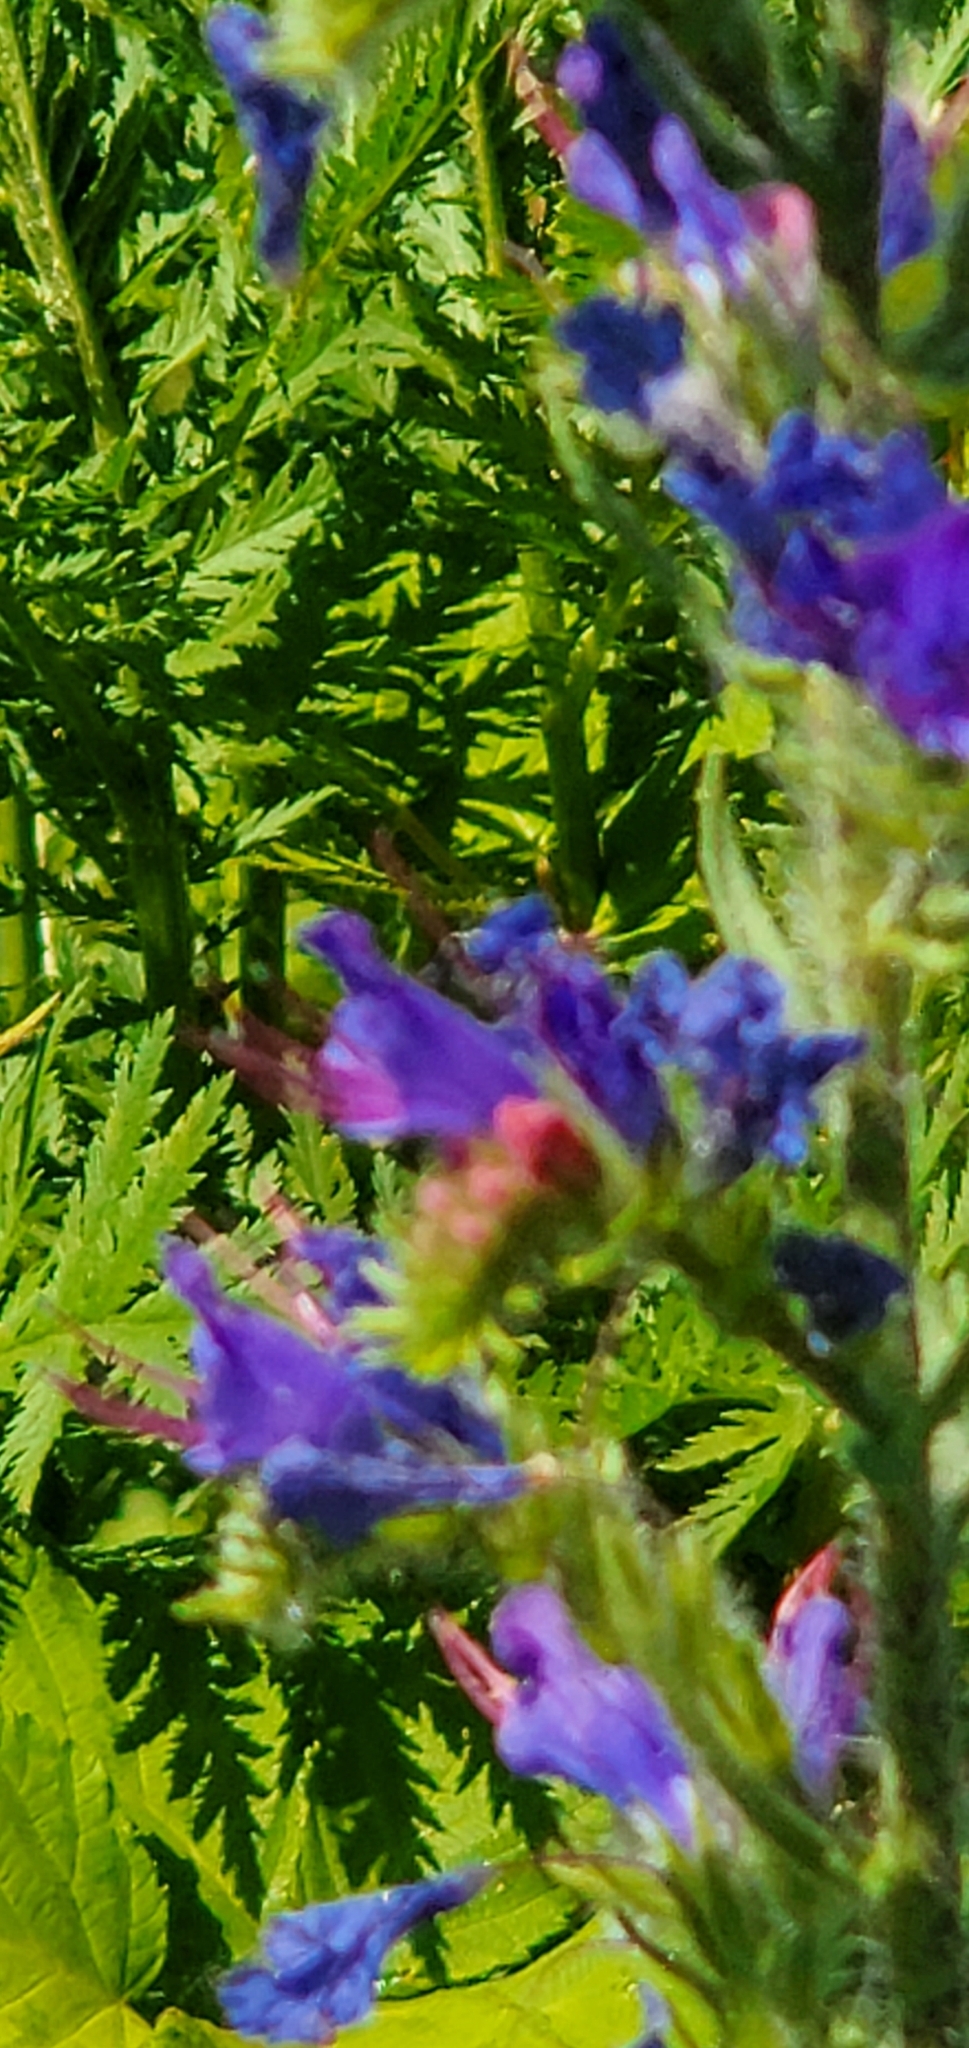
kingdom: Plantae
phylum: Tracheophyta
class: Magnoliopsida
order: Boraginales
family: Boraginaceae
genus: Echium
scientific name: Echium vulgare
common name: Common viper's bugloss
